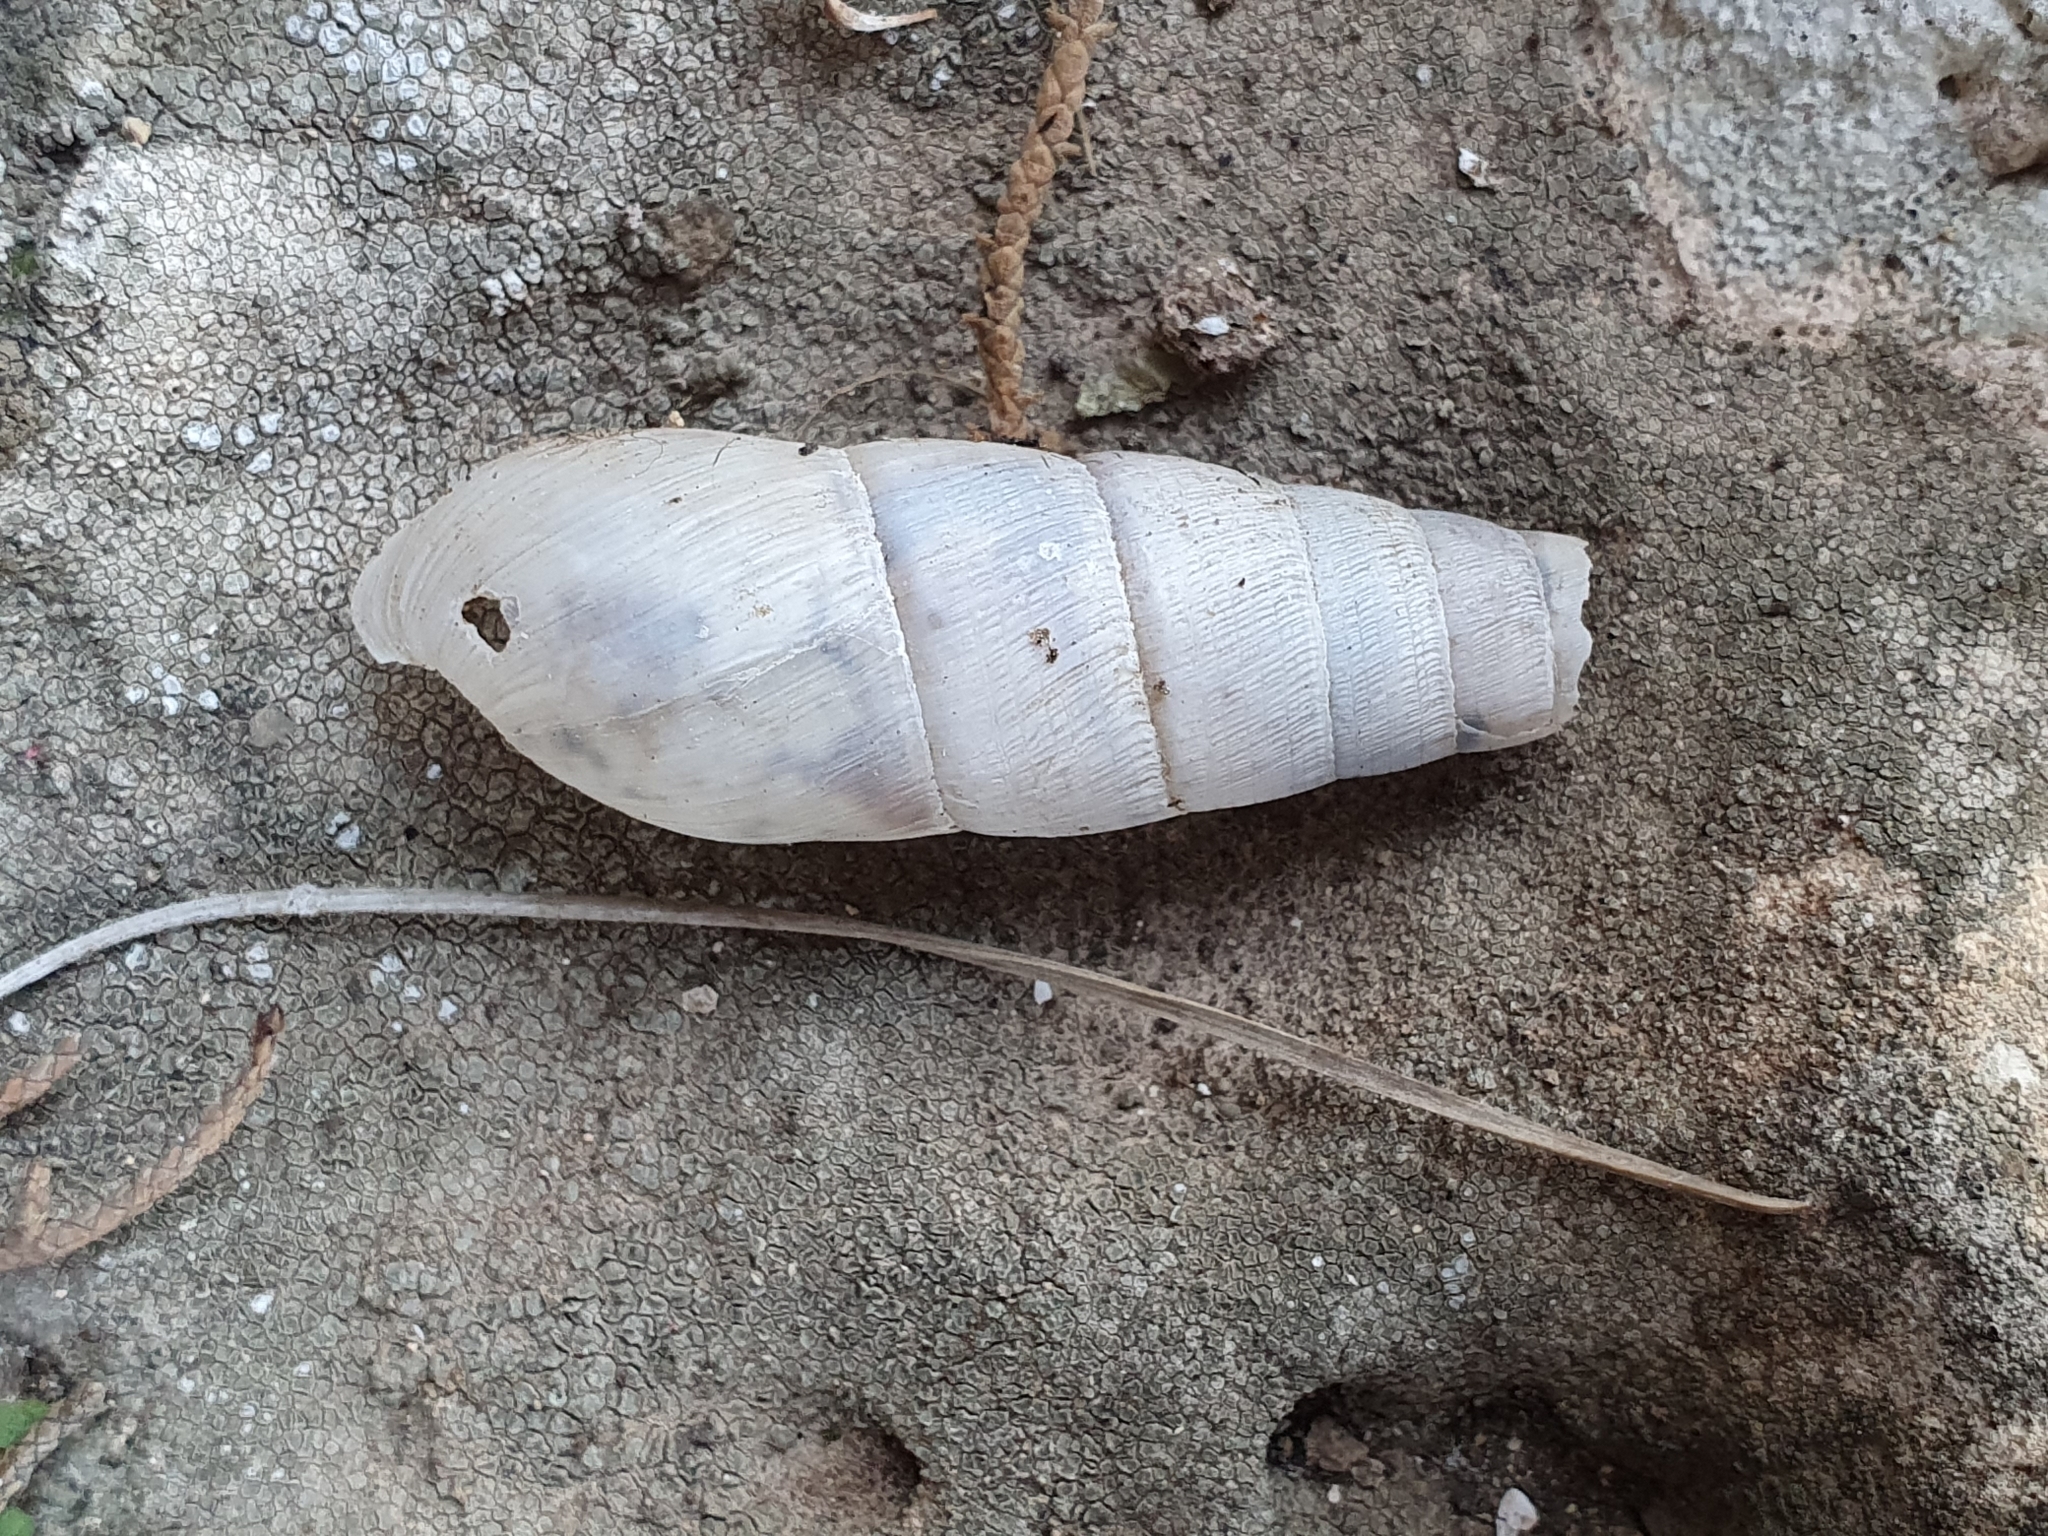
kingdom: Animalia
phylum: Mollusca
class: Gastropoda
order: Stylommatophora
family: Achatinidae
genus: Rumina
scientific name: Rumina decollata
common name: Decollate snail
